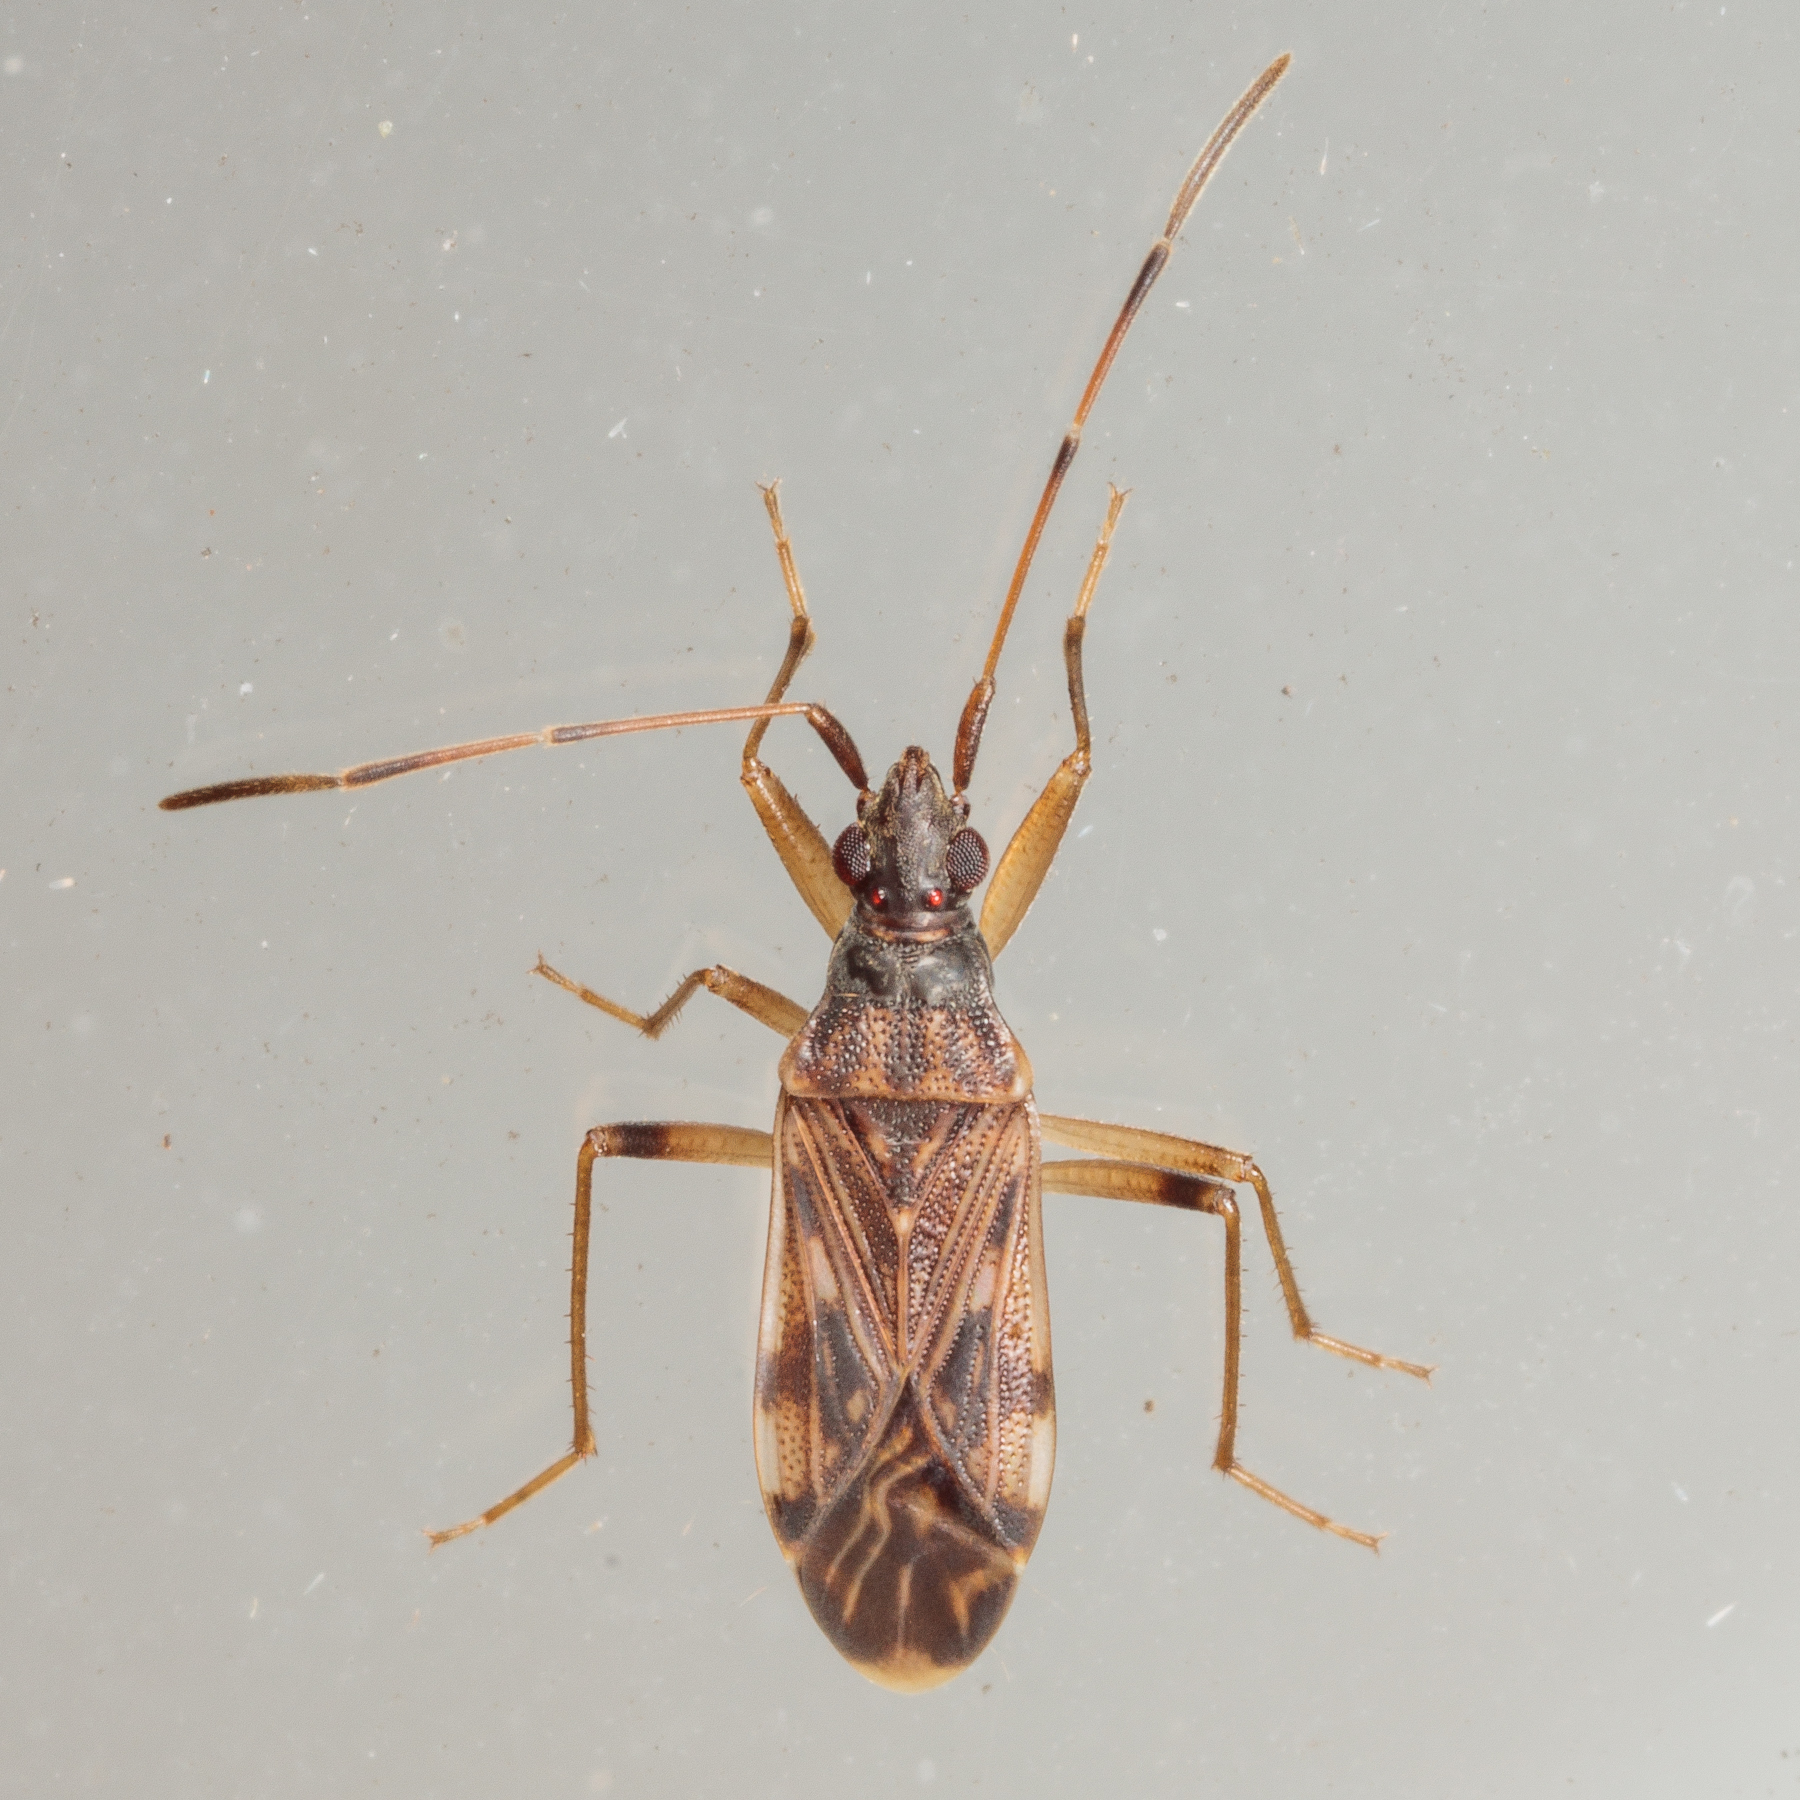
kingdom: Animalia
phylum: Arthropoda
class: Insecta
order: Hemiptera
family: Rhyparochromidae
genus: Ozophora
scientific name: Ozophora salsaverdeae
